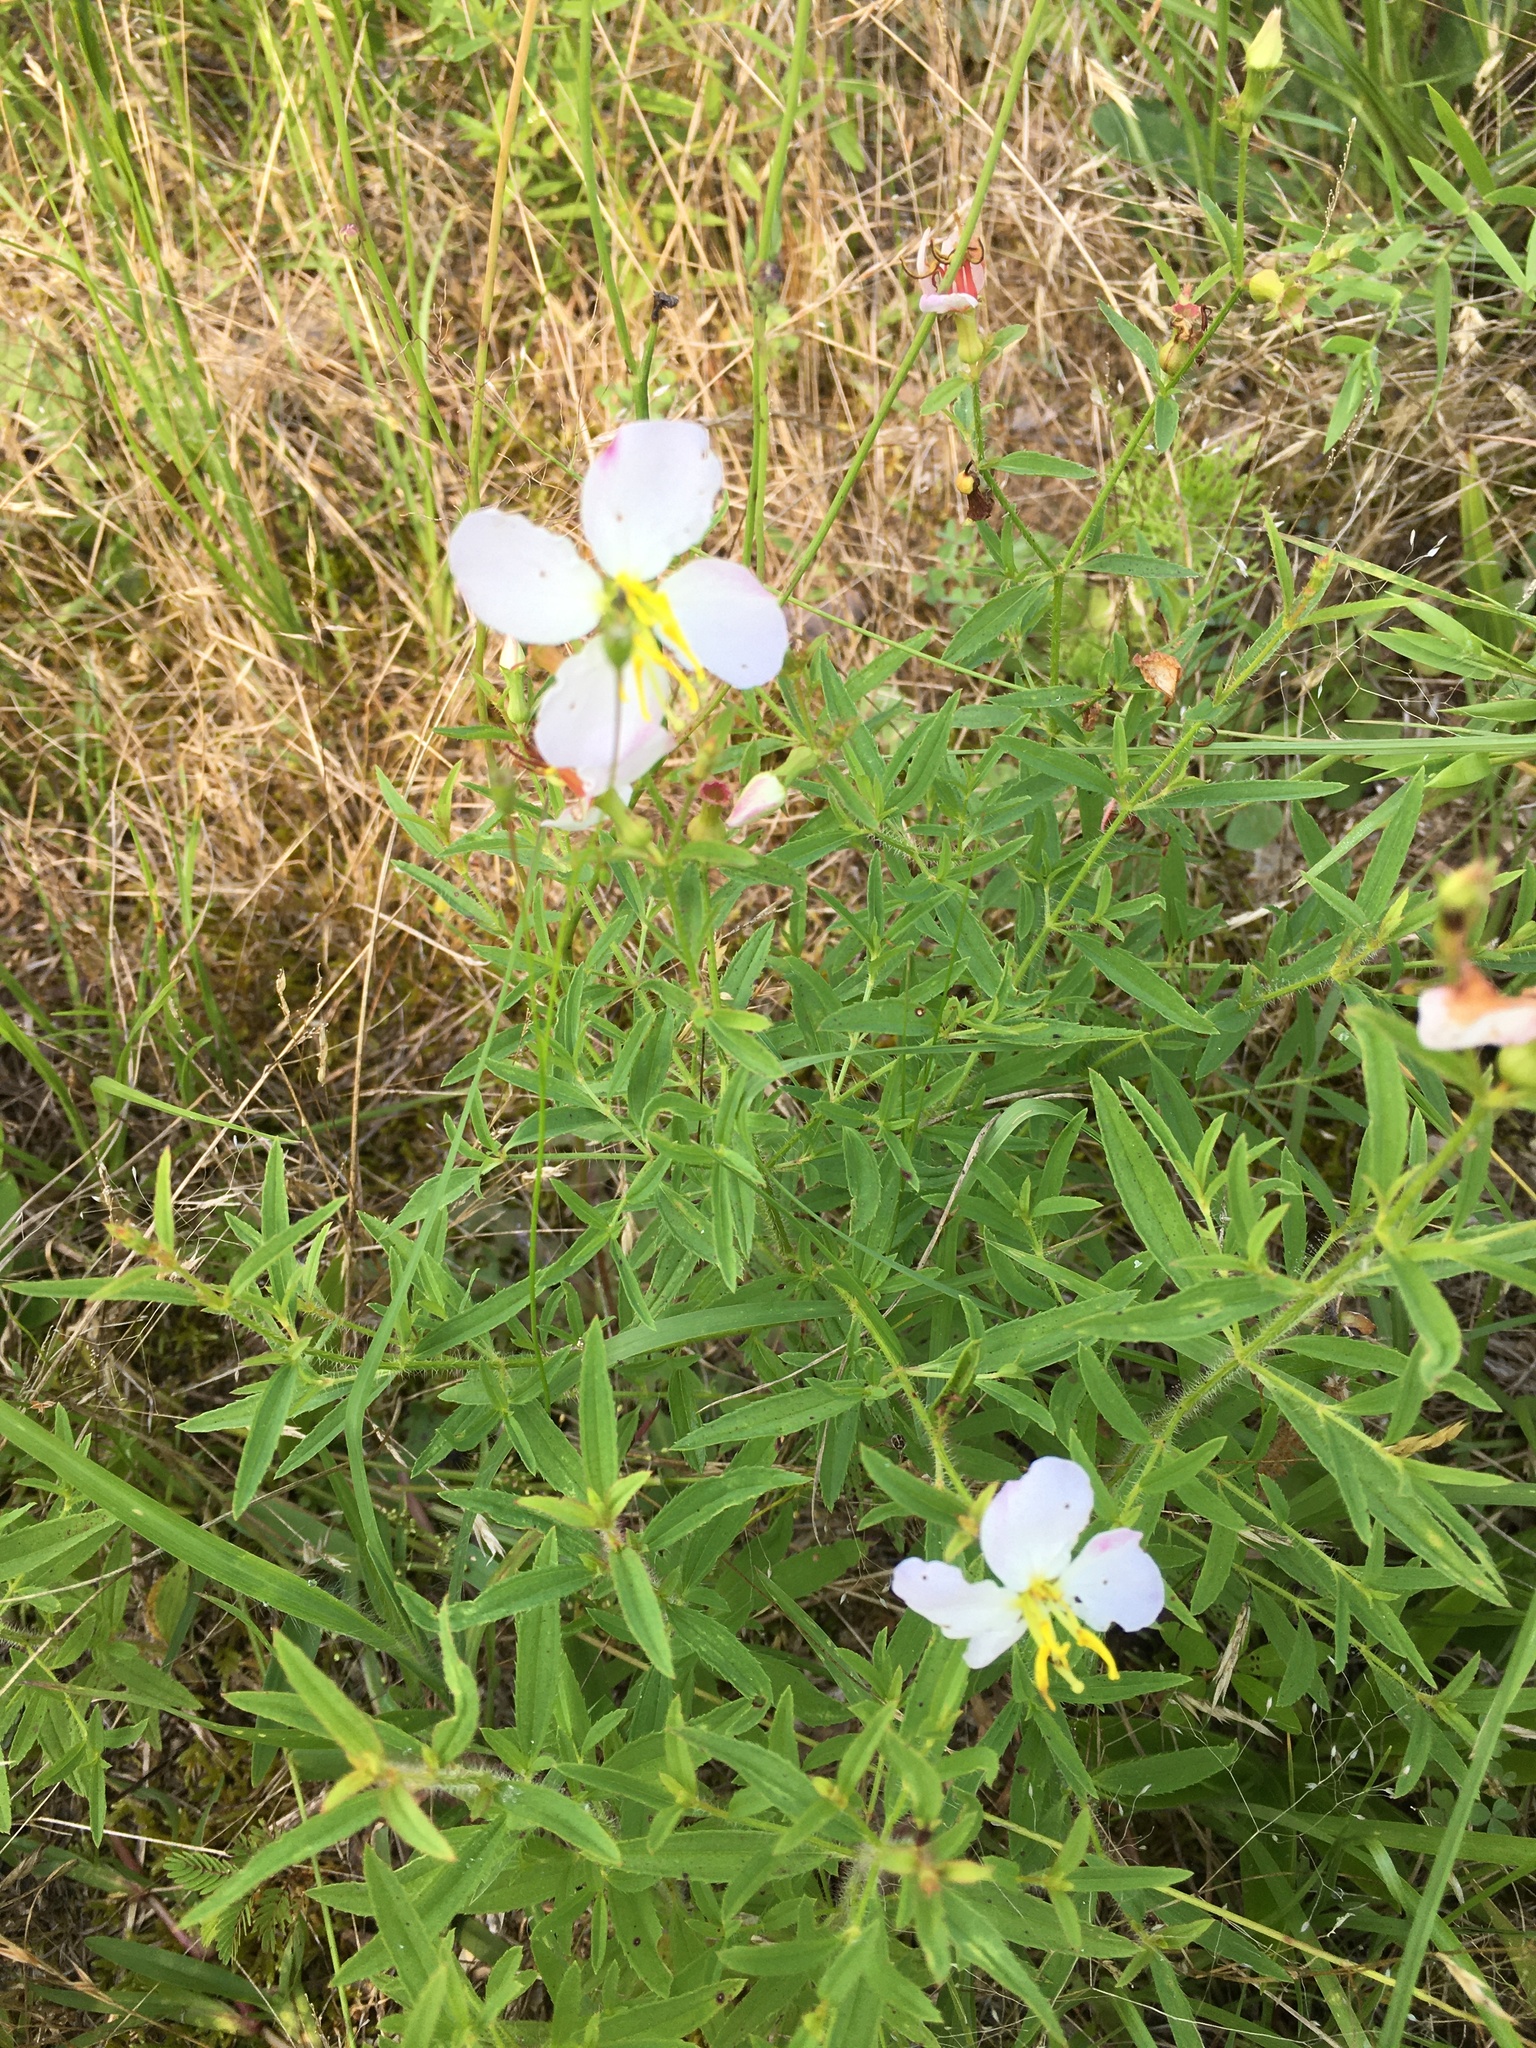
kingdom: Plantae
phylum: Tracheophyta
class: Magnoliopsida
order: Myrtales
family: Melastomataceae
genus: Rhexia
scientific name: Rhexia mariana
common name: Dull meadow-pitcher
